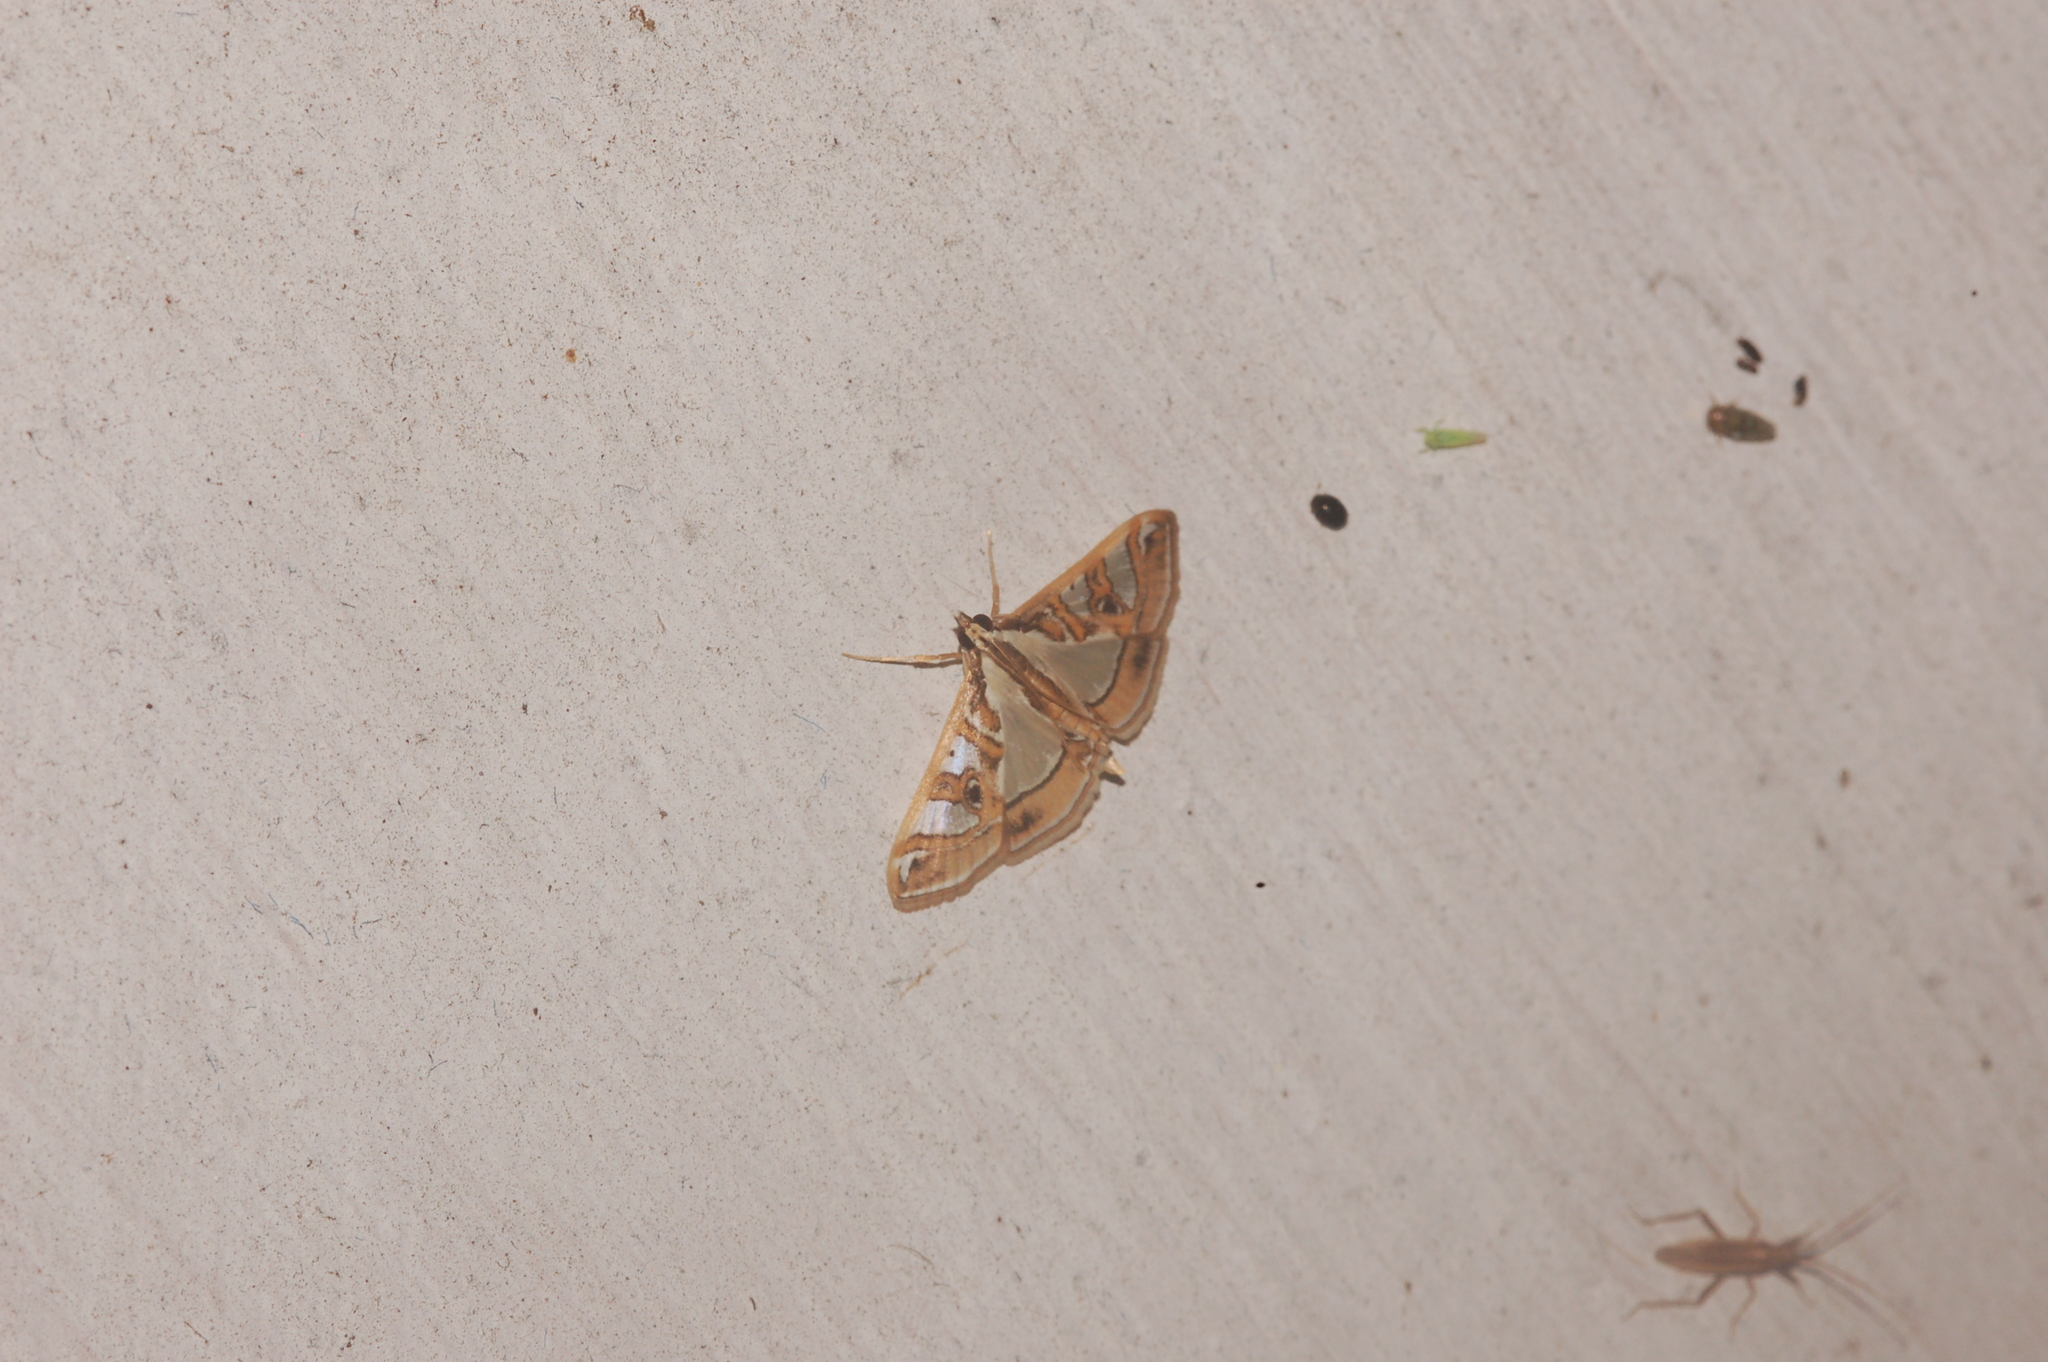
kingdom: Animalia
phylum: Arthropoda
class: Insecta
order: Lepidoptera
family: Crambidae
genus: Glyphodes
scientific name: Glyphodes pyloalis
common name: Lesser mulberry snout moth
